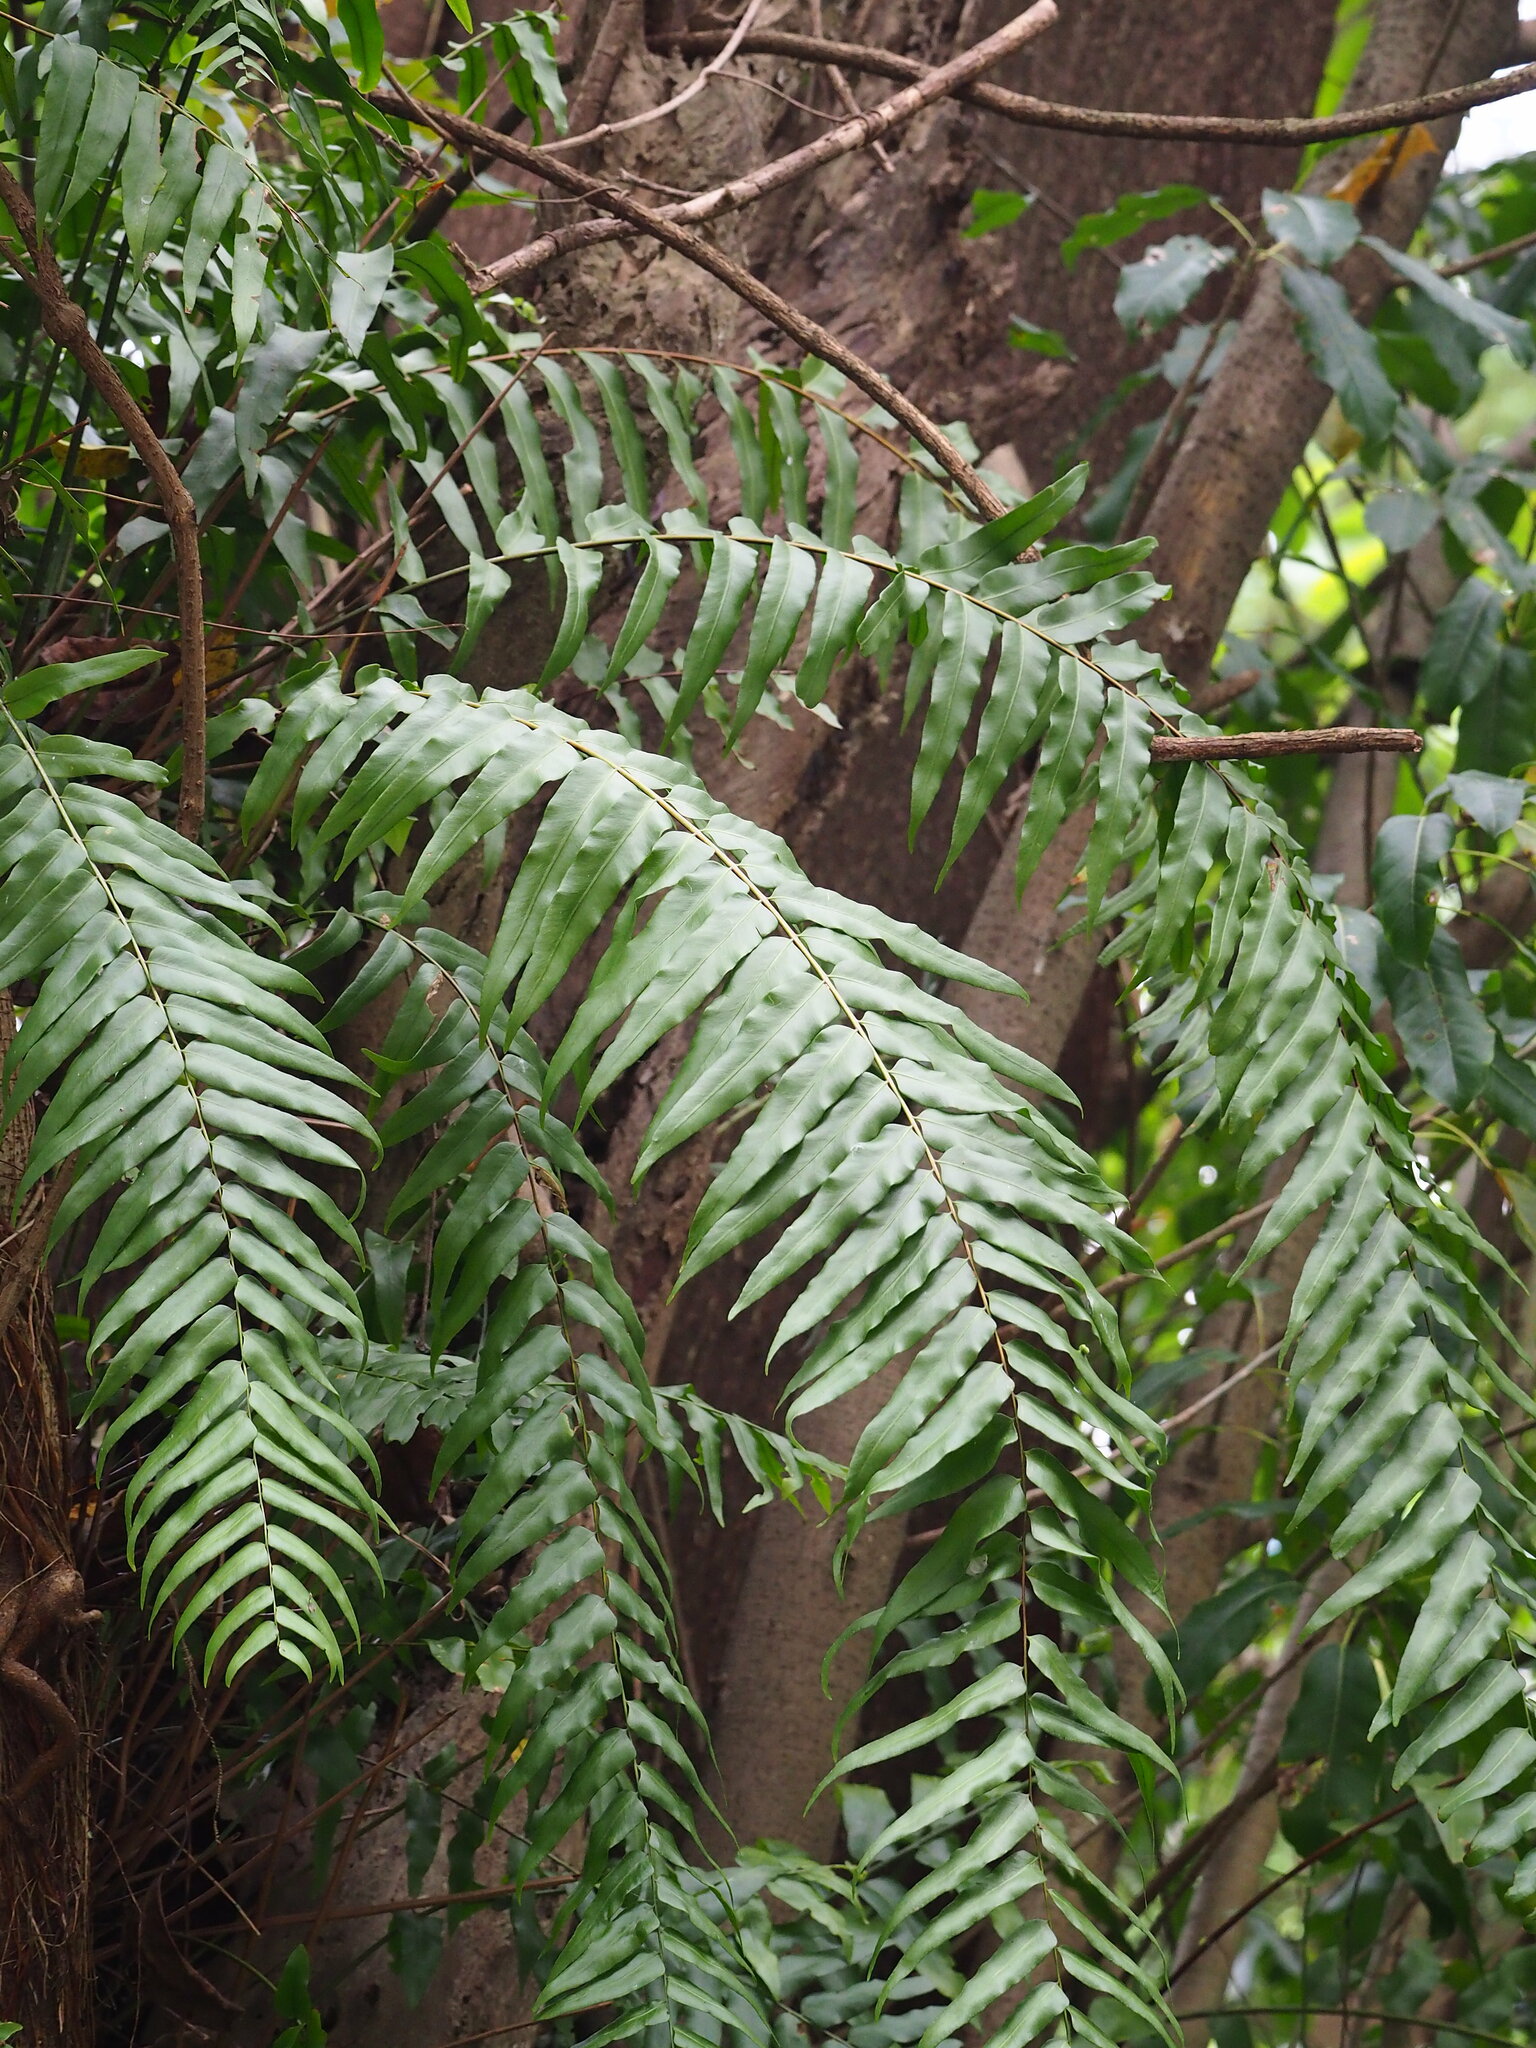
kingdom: Plantae
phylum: Tracheophyta
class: Polypodiopsida
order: Polypodiales
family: Nephrolepidaceae
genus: Nephrolepis
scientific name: Nephrolepis biserrata
